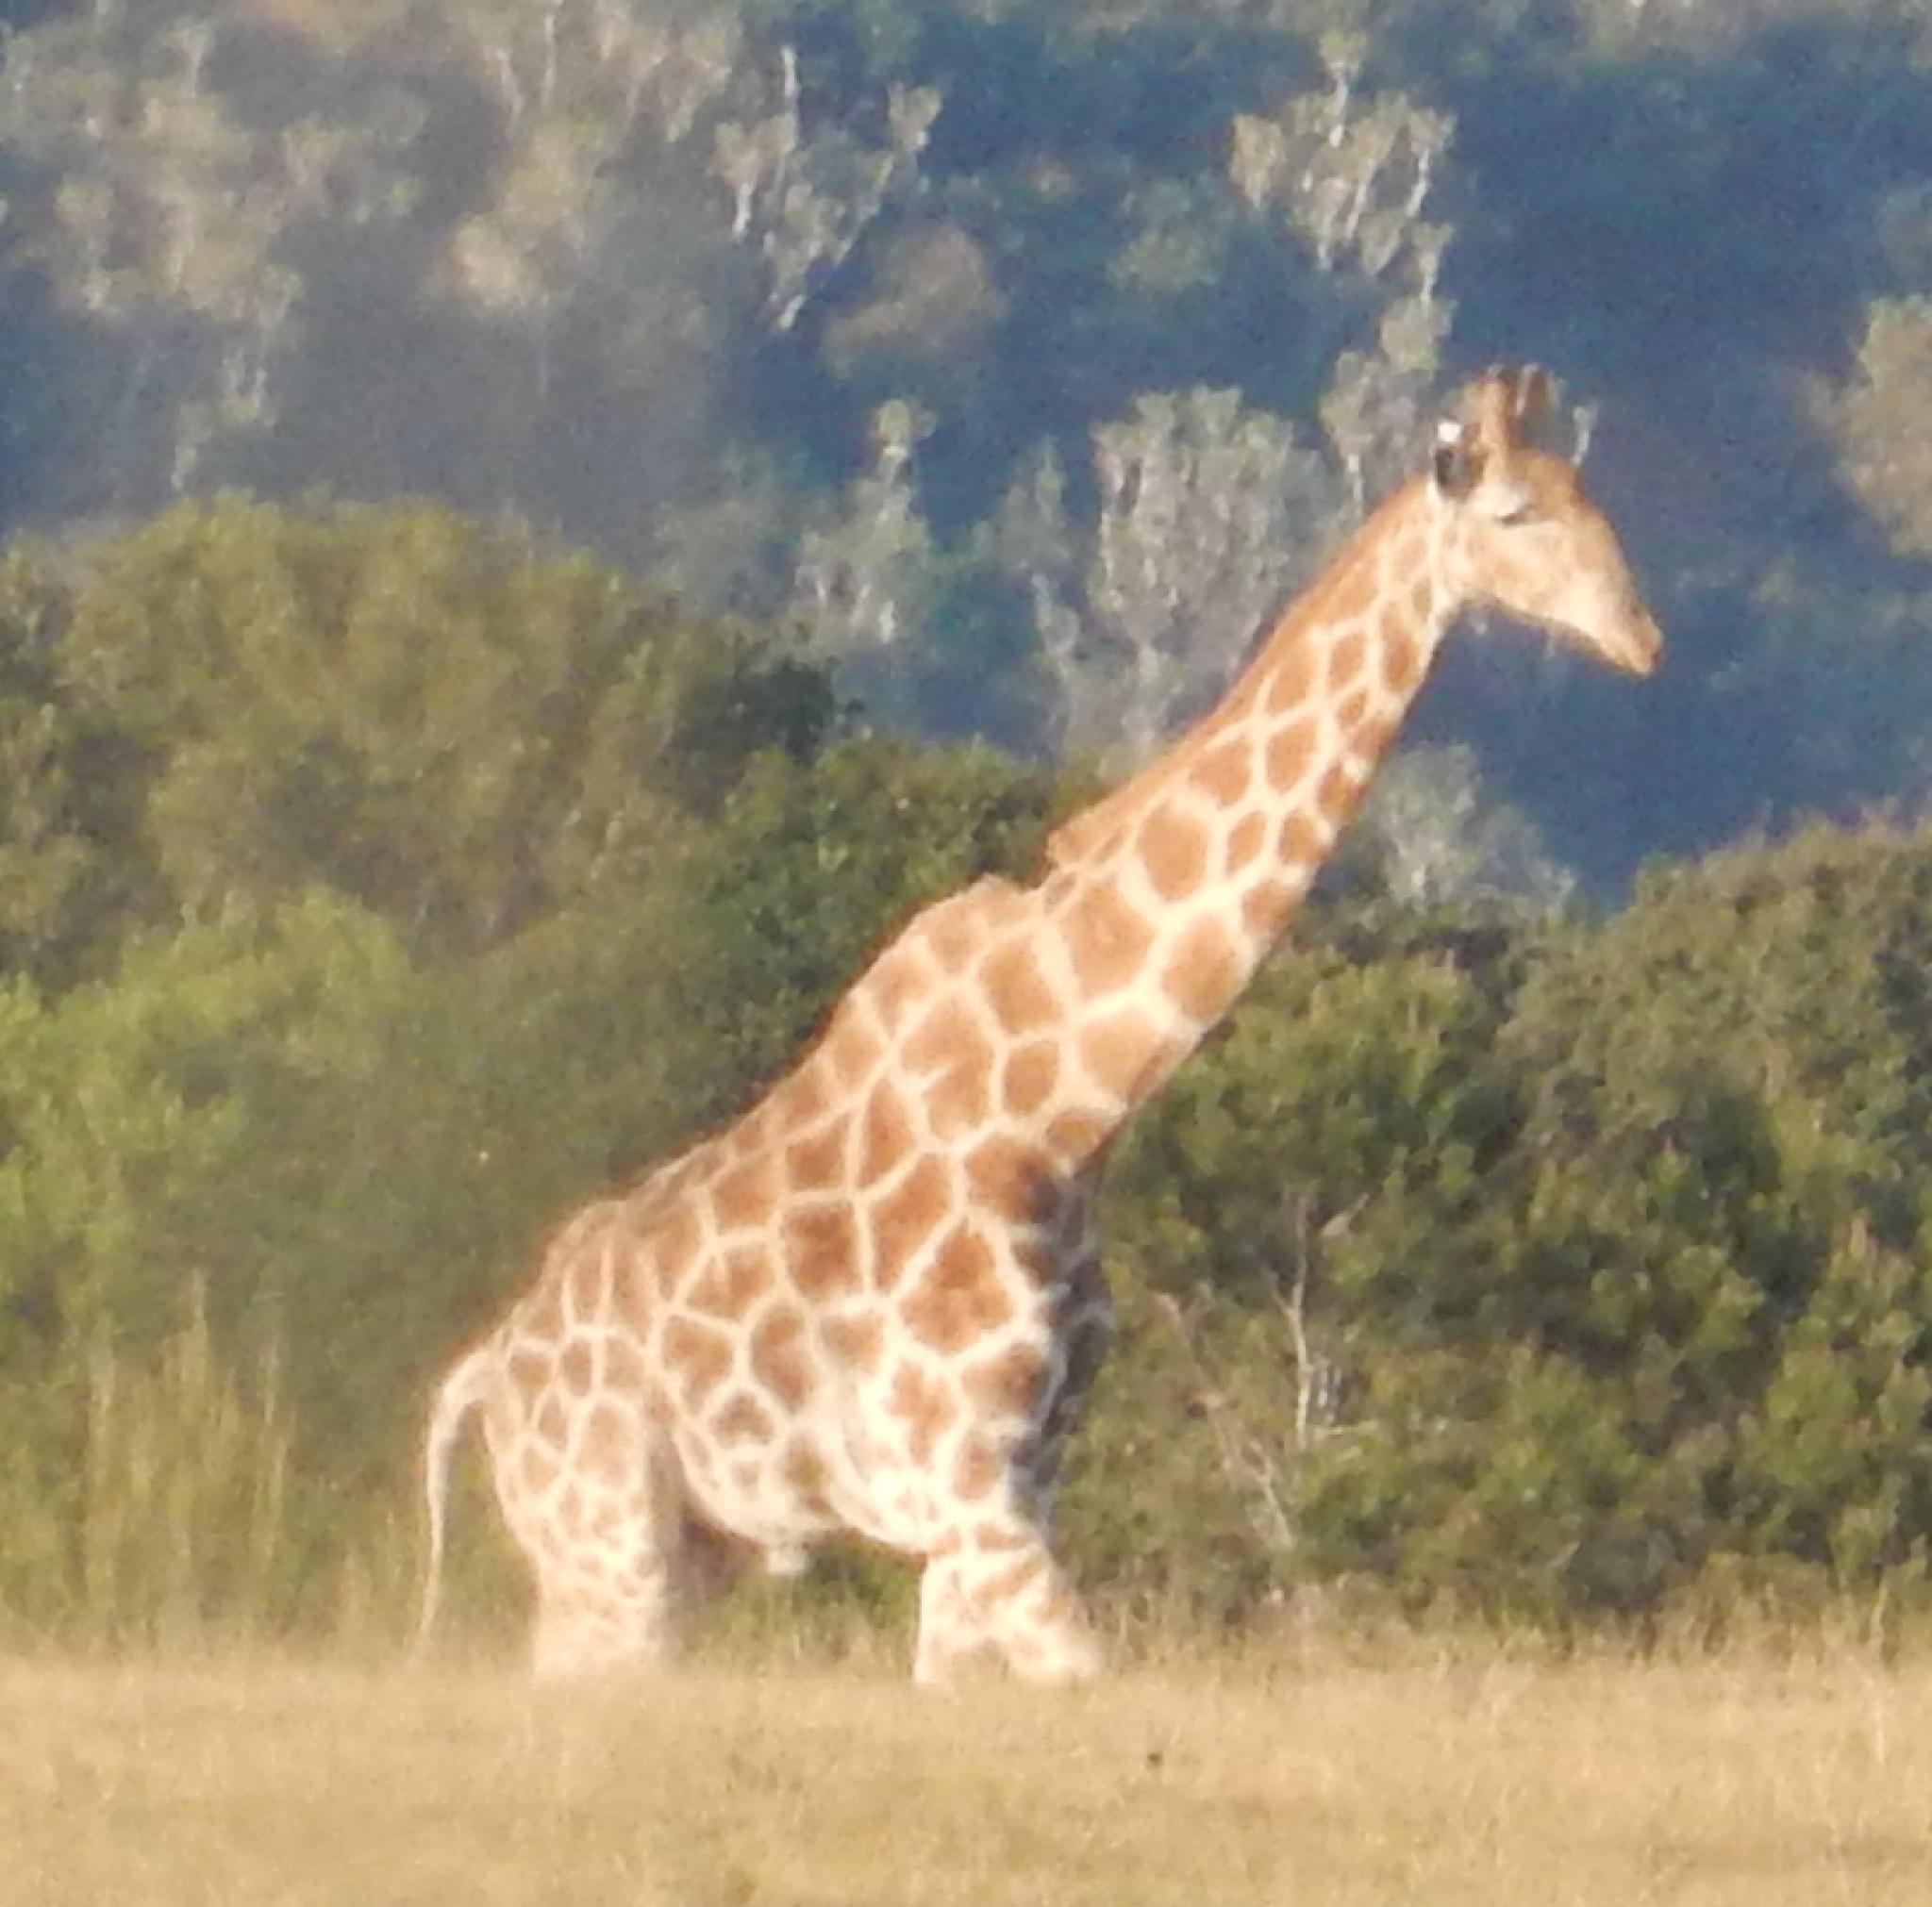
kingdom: Animalia
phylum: Chordata
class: Mammalia
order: Artiodactyla
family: Giraffidae
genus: Giraffa
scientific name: Giraffa giraffa
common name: Southern giraffe
